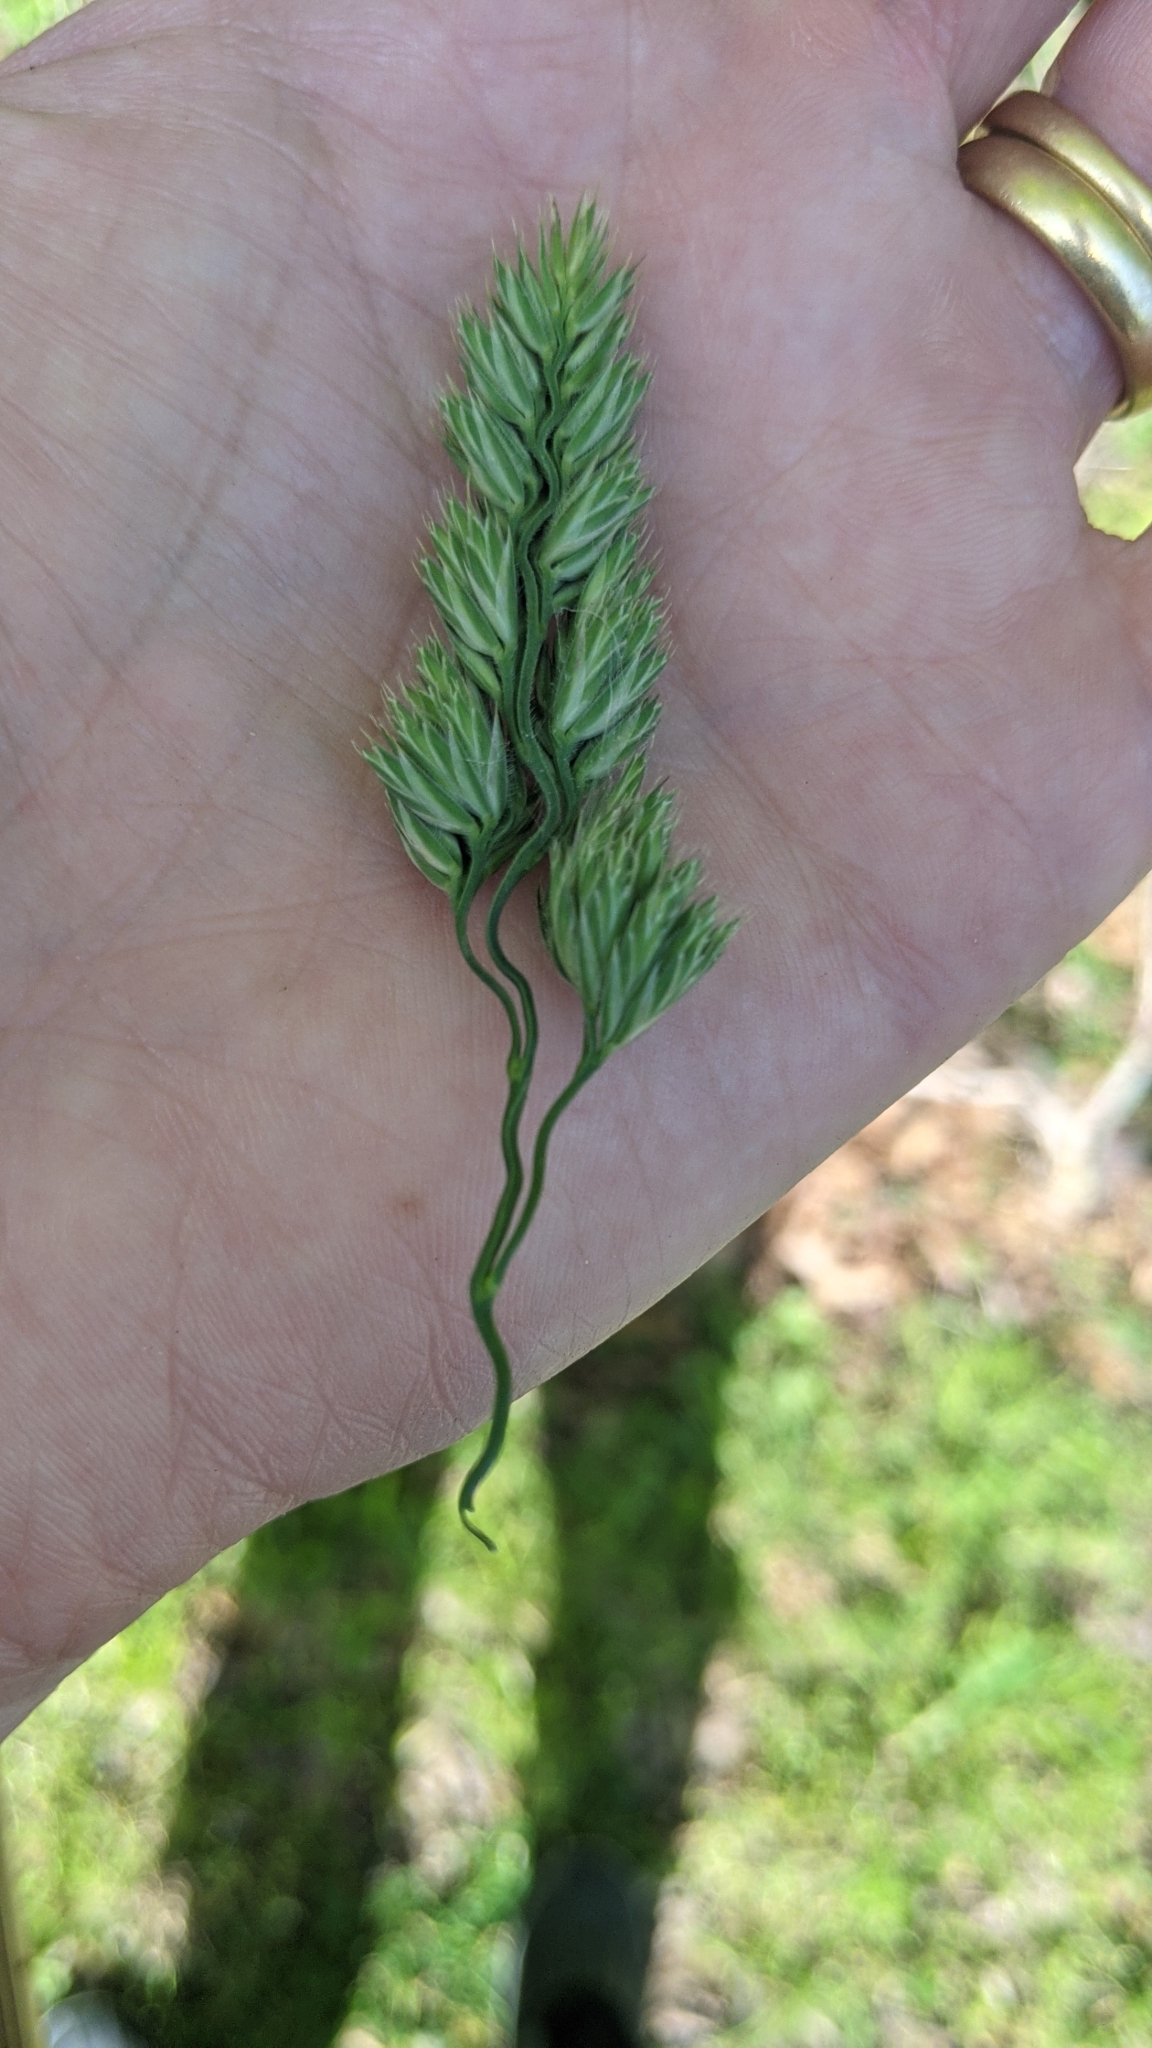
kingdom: Plantae
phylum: Tracheophyta
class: Liliopsida
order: Poales
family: Poaceae
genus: Dactylis
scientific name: Dactylis glomerata
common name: Orchardgrass
